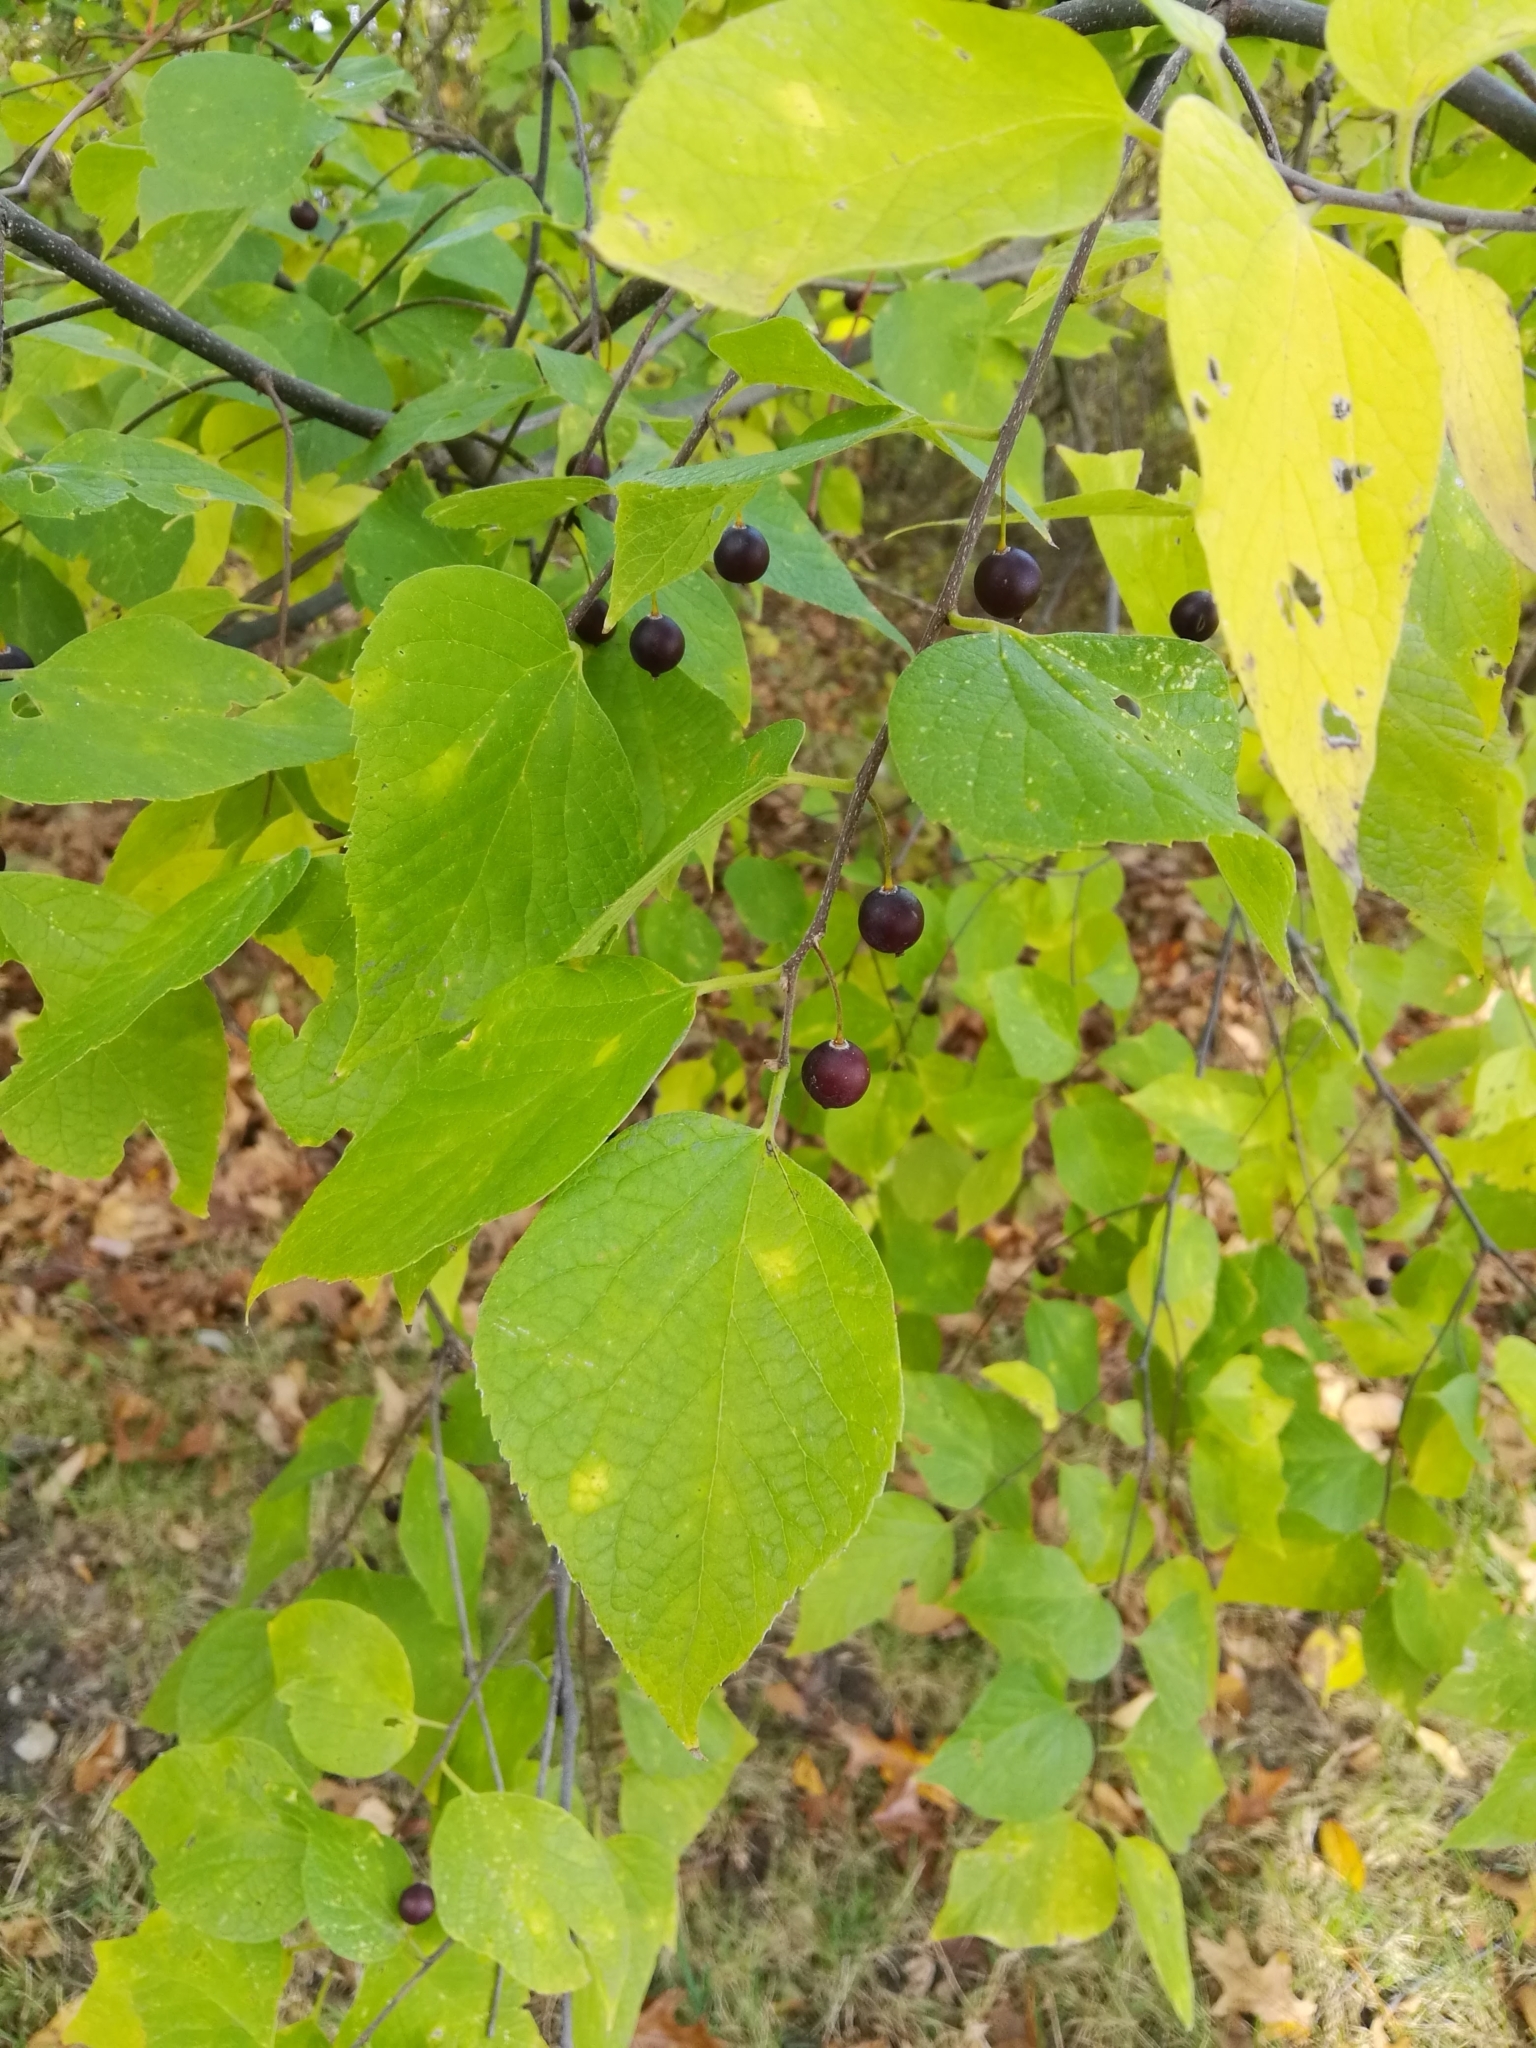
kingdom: Plantae
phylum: Tracheophyta
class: Magnoliopsida
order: Rosales
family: Cannabaceae
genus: Celtis
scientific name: Celtis occidentalis
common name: Common hackberry
